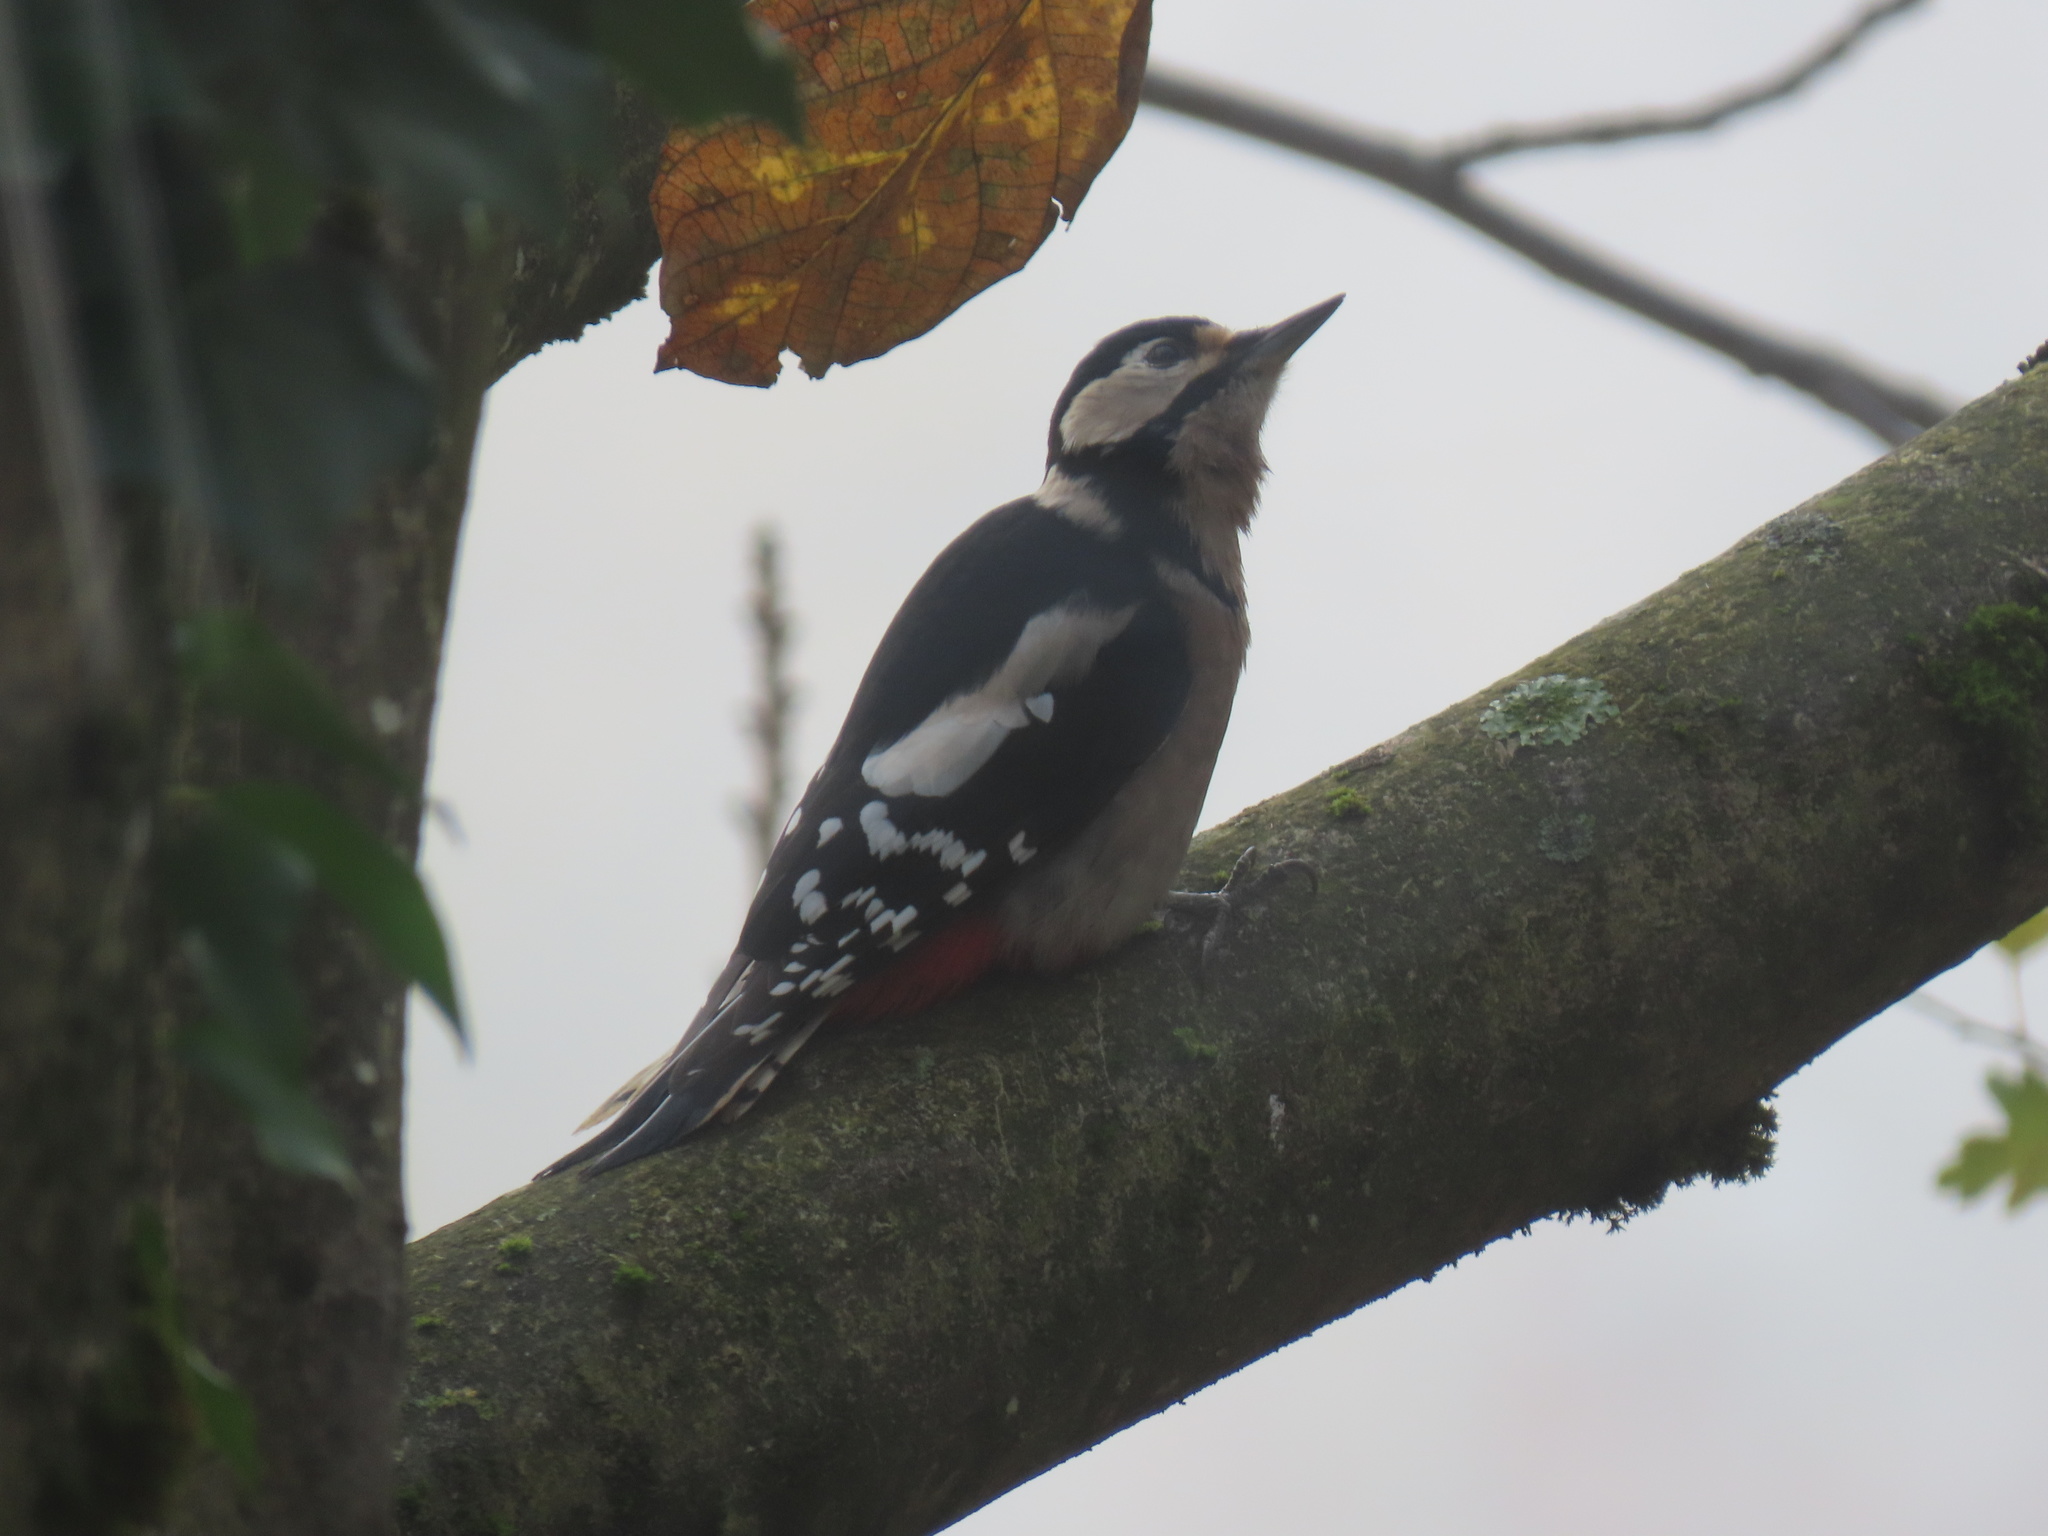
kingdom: Animalia
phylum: Chordata
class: Aves
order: Piciformes
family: Picidae
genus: Dendrocopos
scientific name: Dendrocopos major
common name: Great spotted woodpecker
